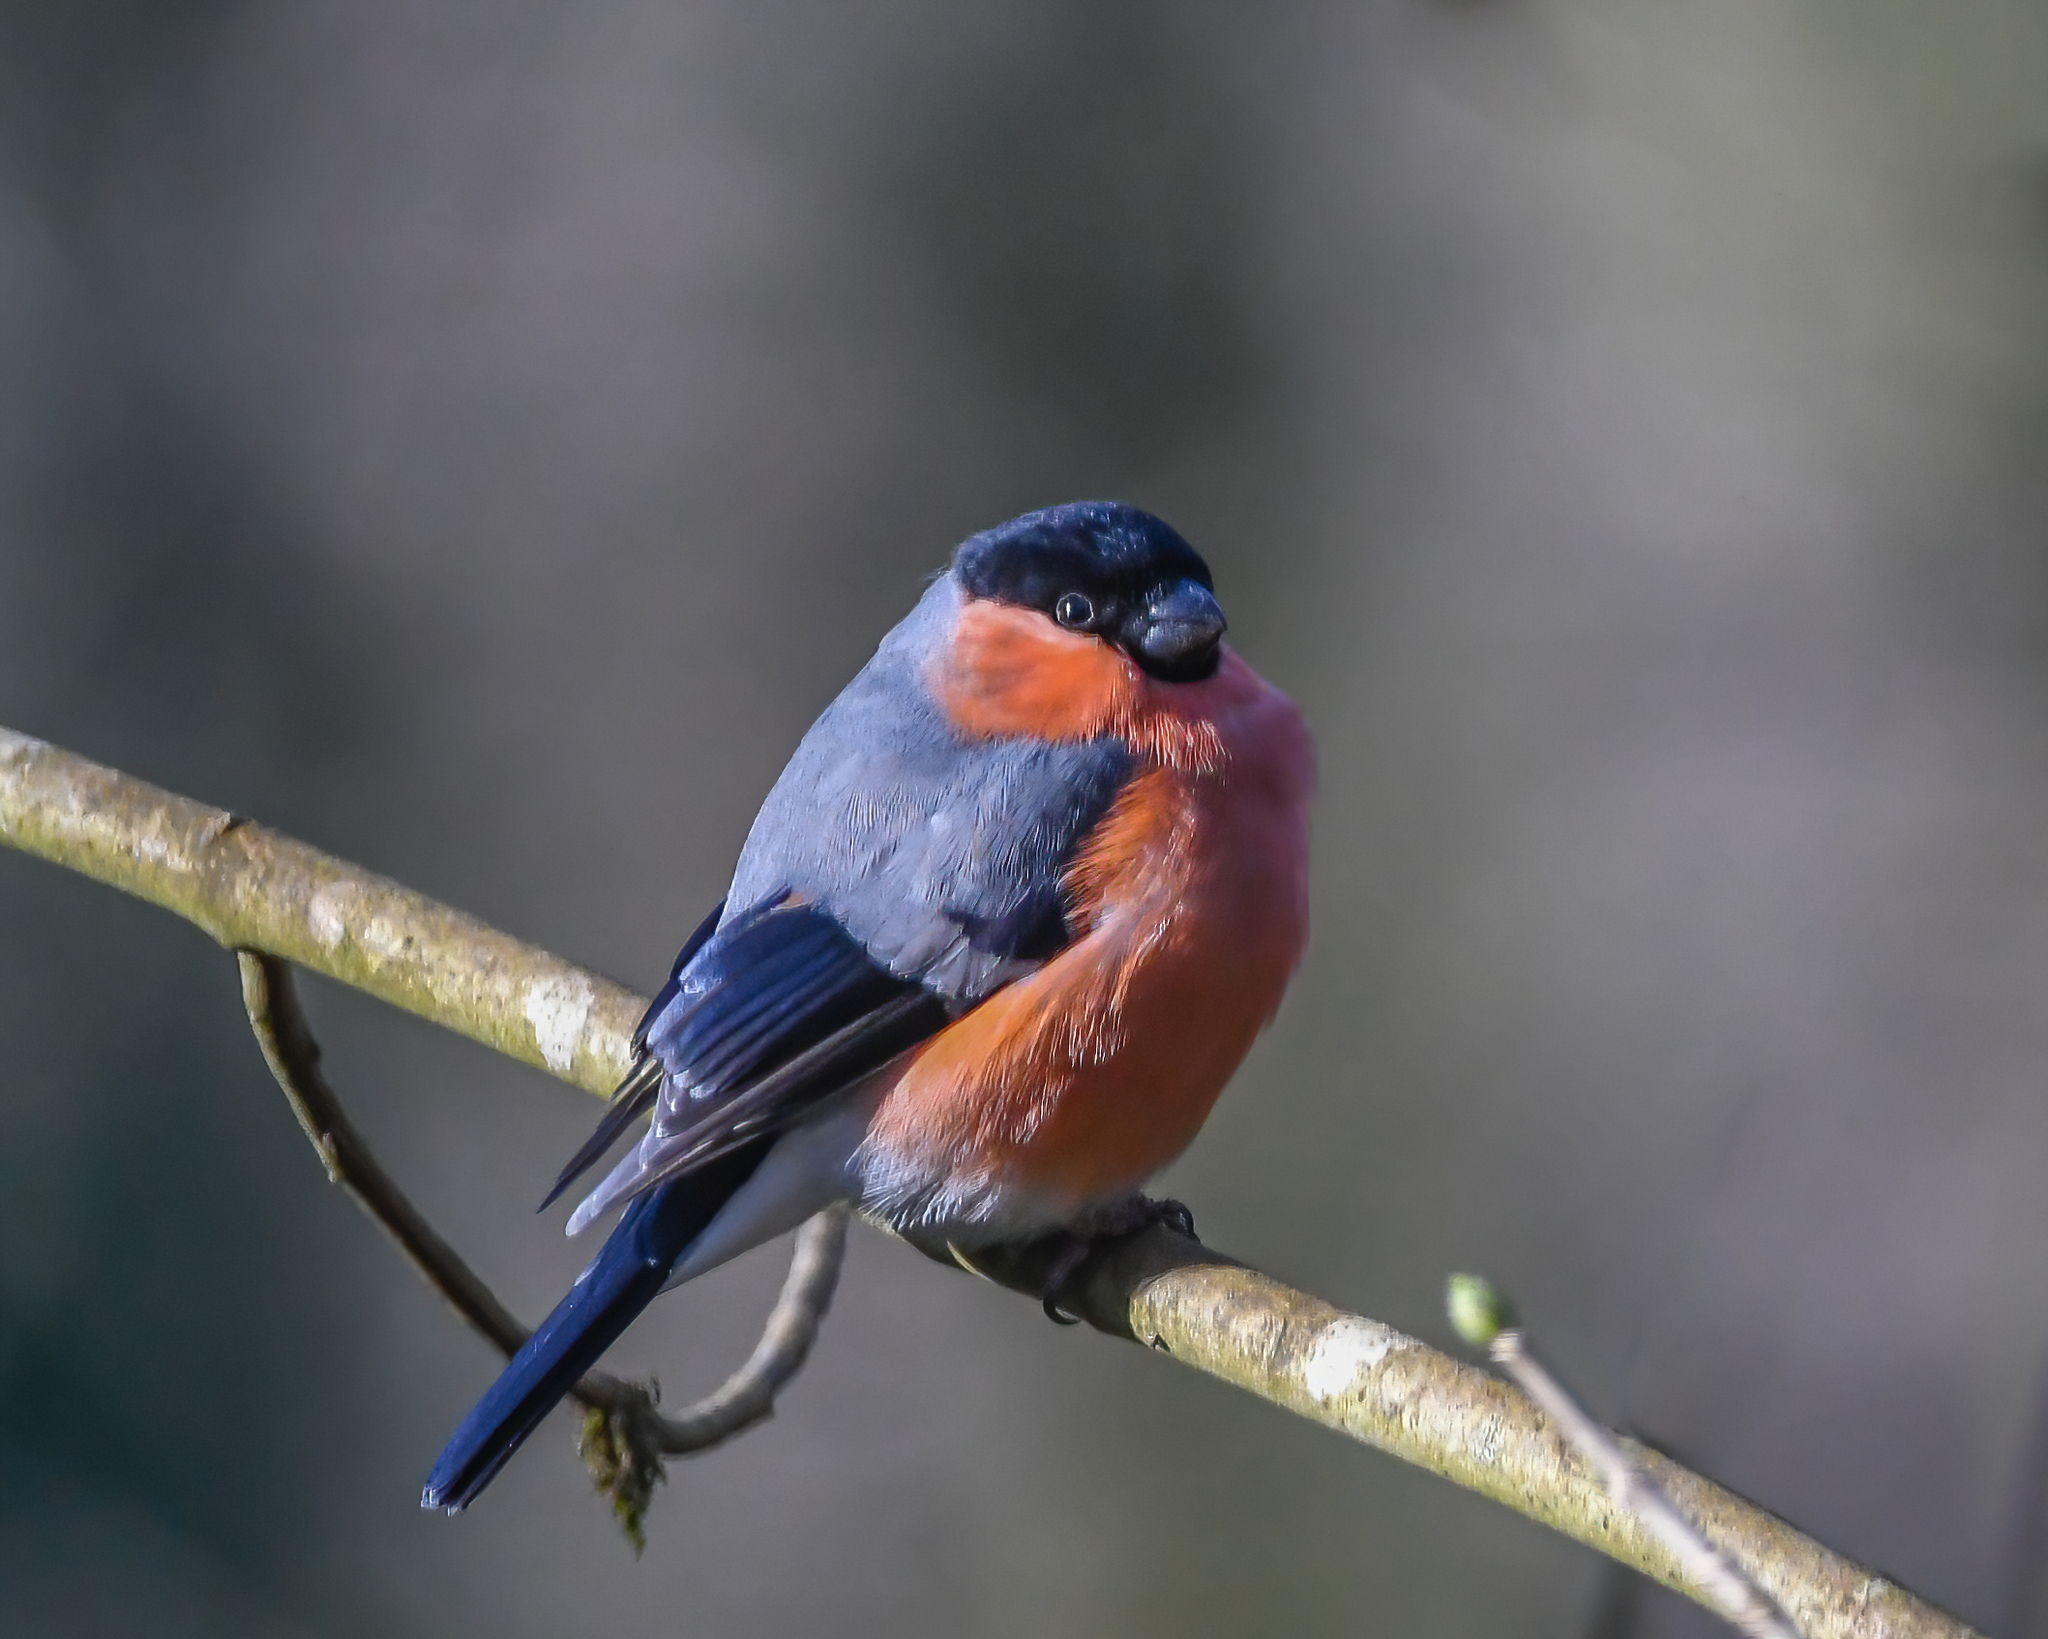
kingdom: Animalia
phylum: Chordata
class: Aves
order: Passeriformes
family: Fringillidae
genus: Pyrrhula
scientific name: Pyrrhula pyrrhula
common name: Eurasian bullfinch
